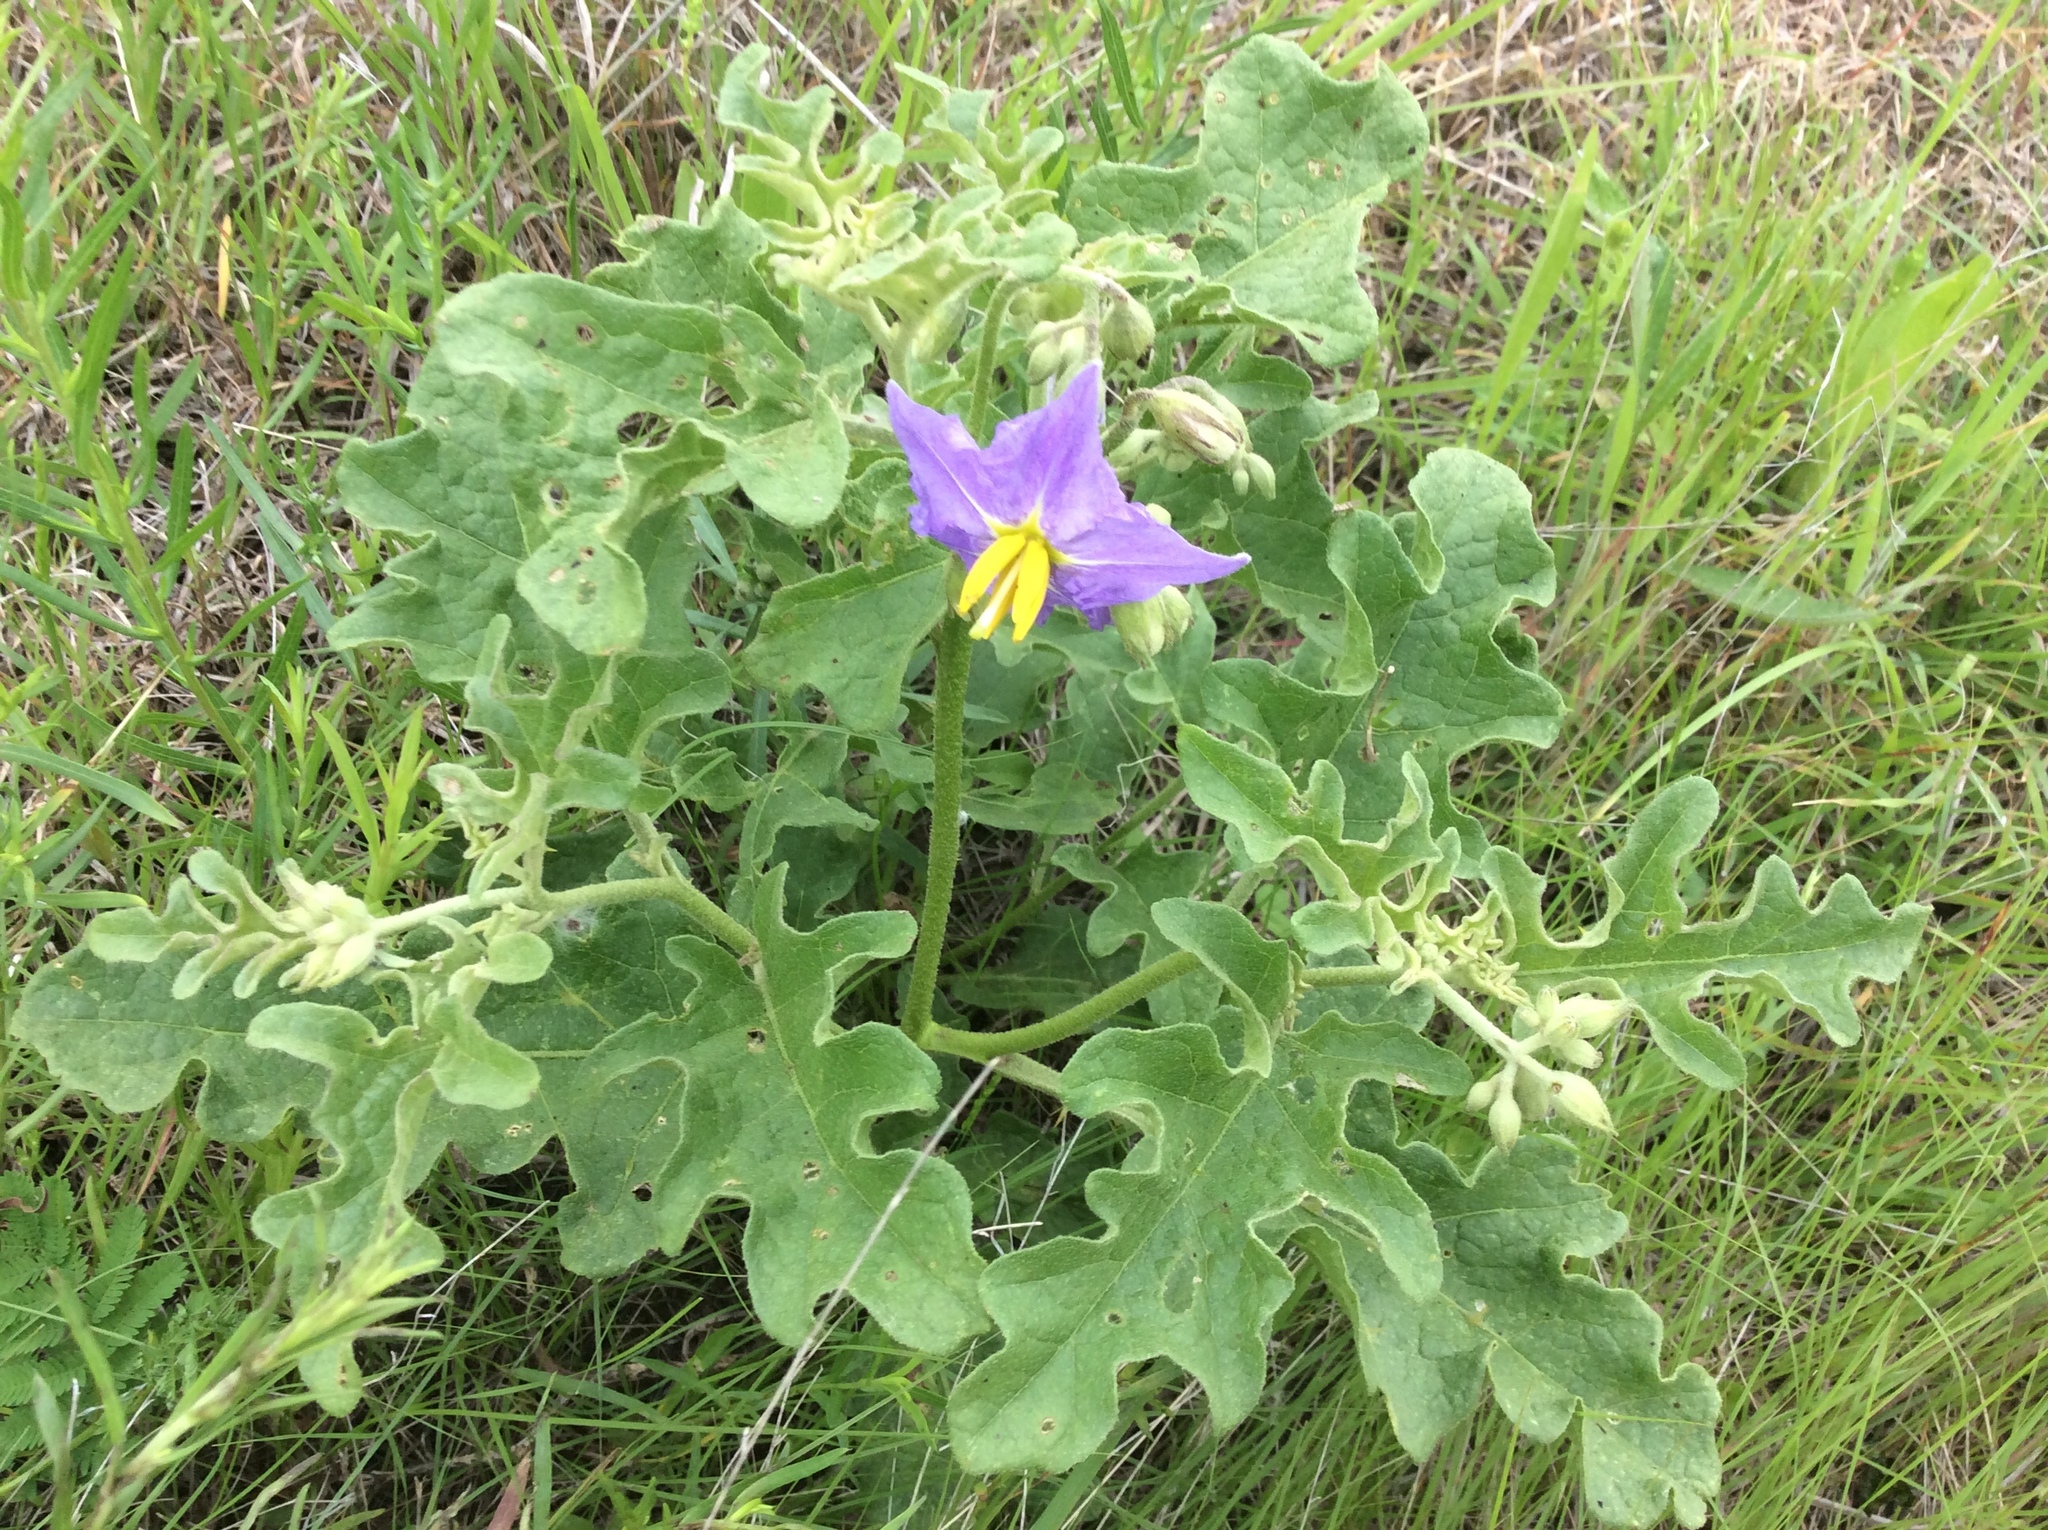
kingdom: Plantae
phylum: Tracheophyta
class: Magnoliopsida
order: Solanales
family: Solanaceae
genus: Solanum
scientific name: Solanum dimidiatum
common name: Carolina horse-nettle
